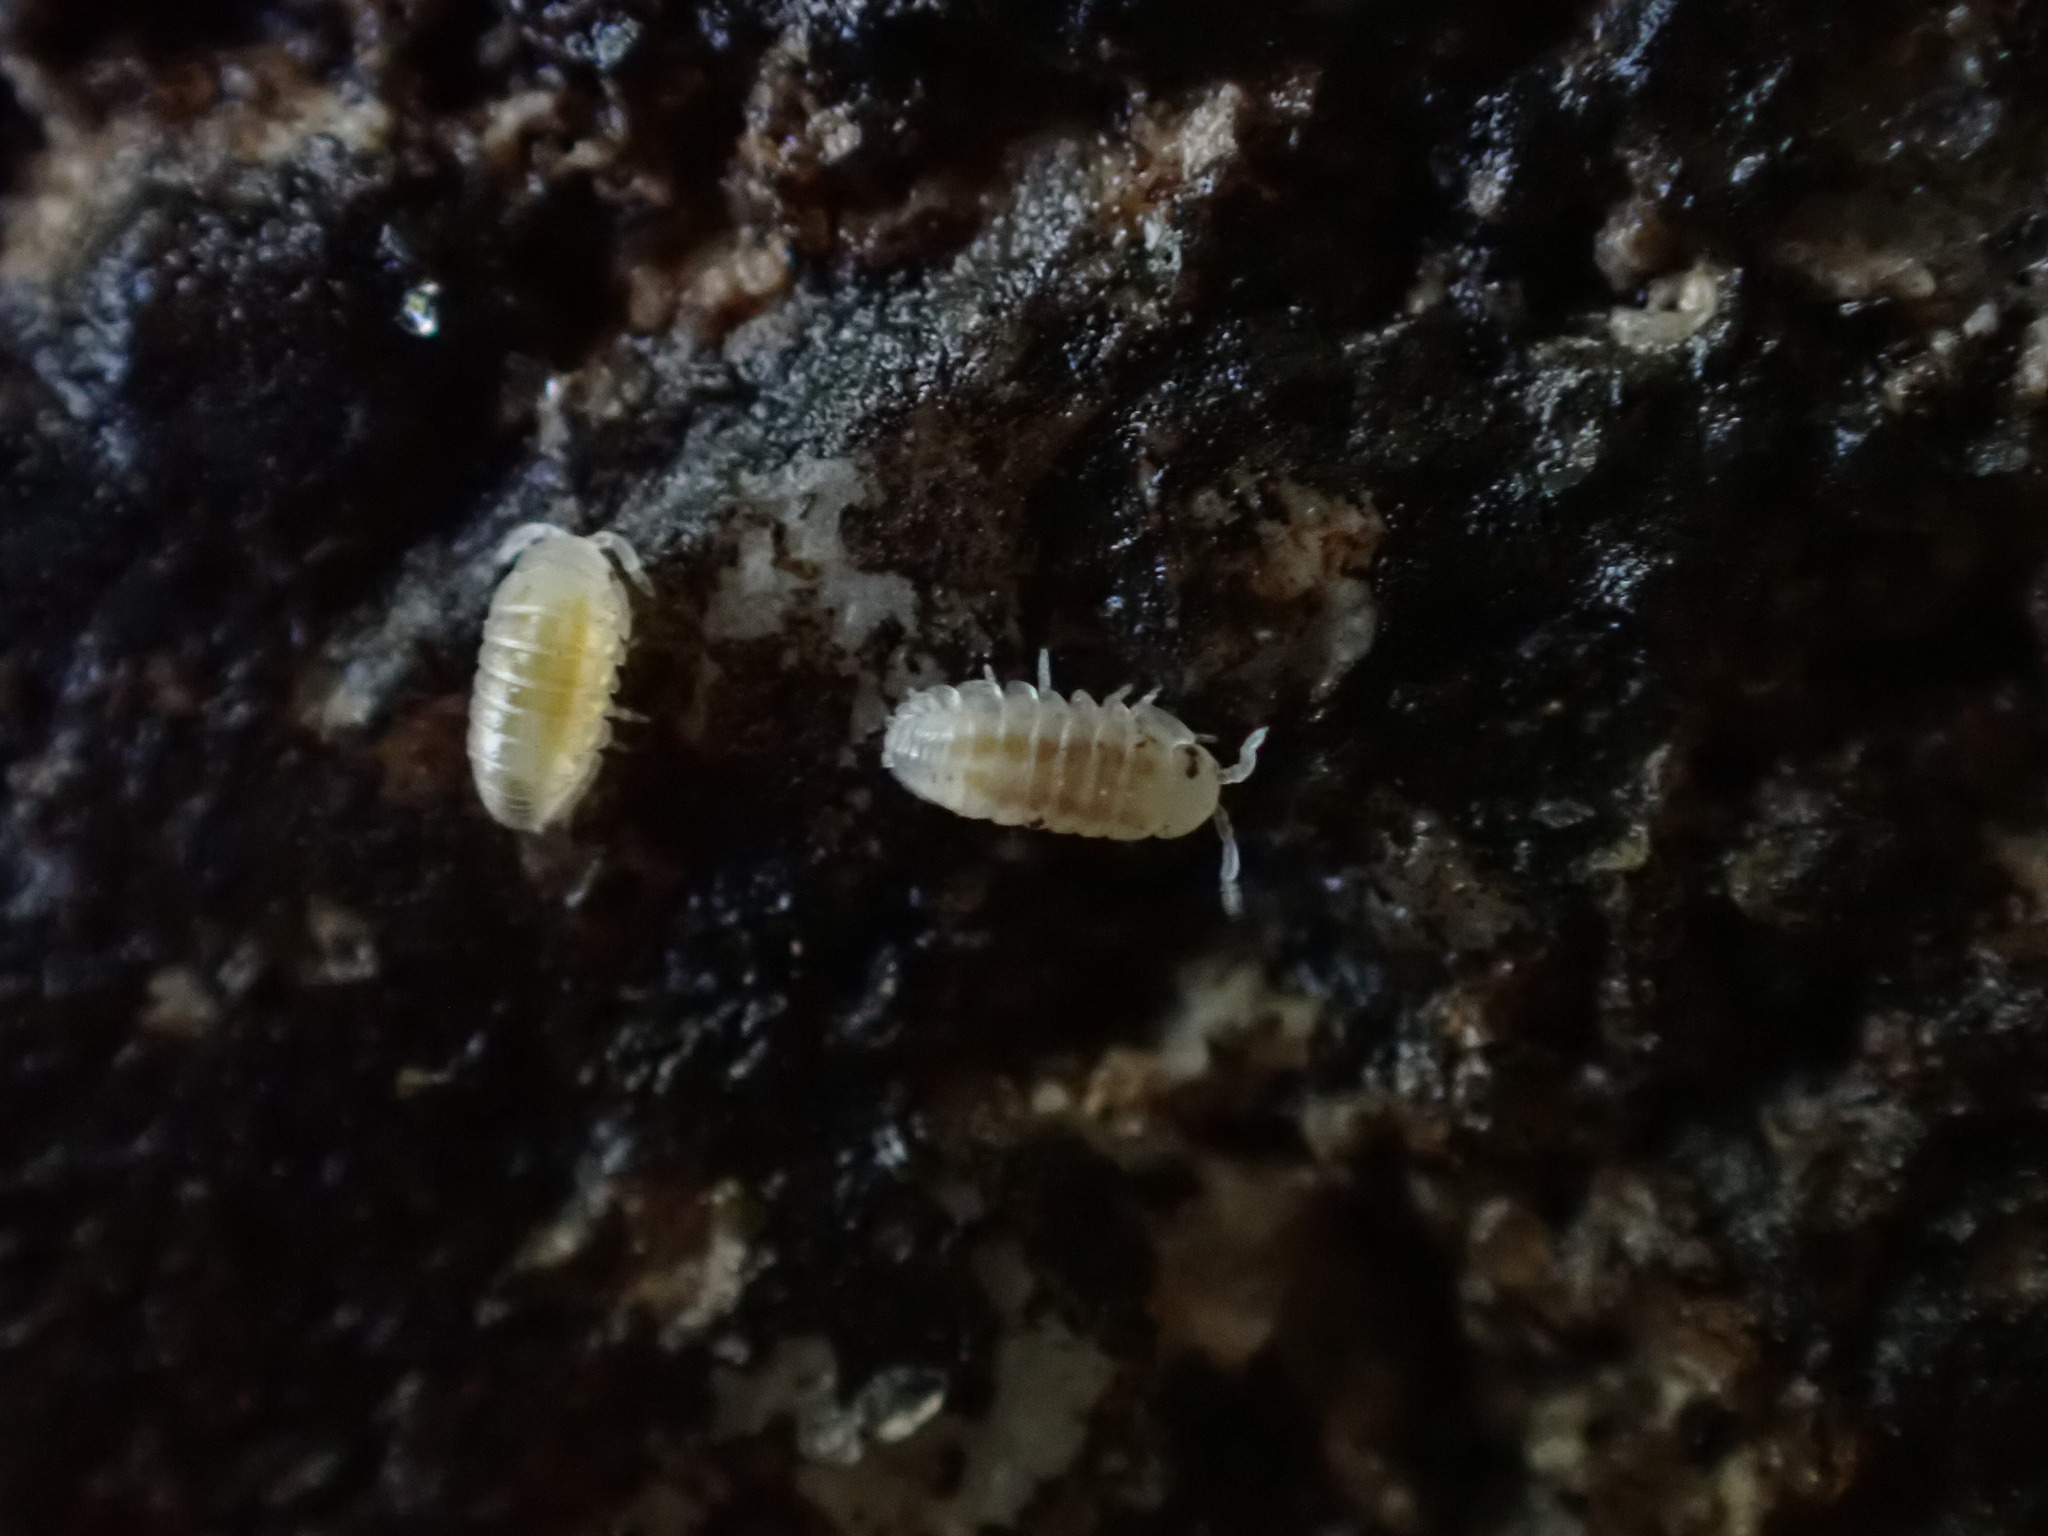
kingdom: Animalia
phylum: Arthropoda
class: Malacostraca
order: Isopoda
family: Armadillidiidae
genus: Armadillidium
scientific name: Armadillidium vulgare
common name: Common pill woodlouse
